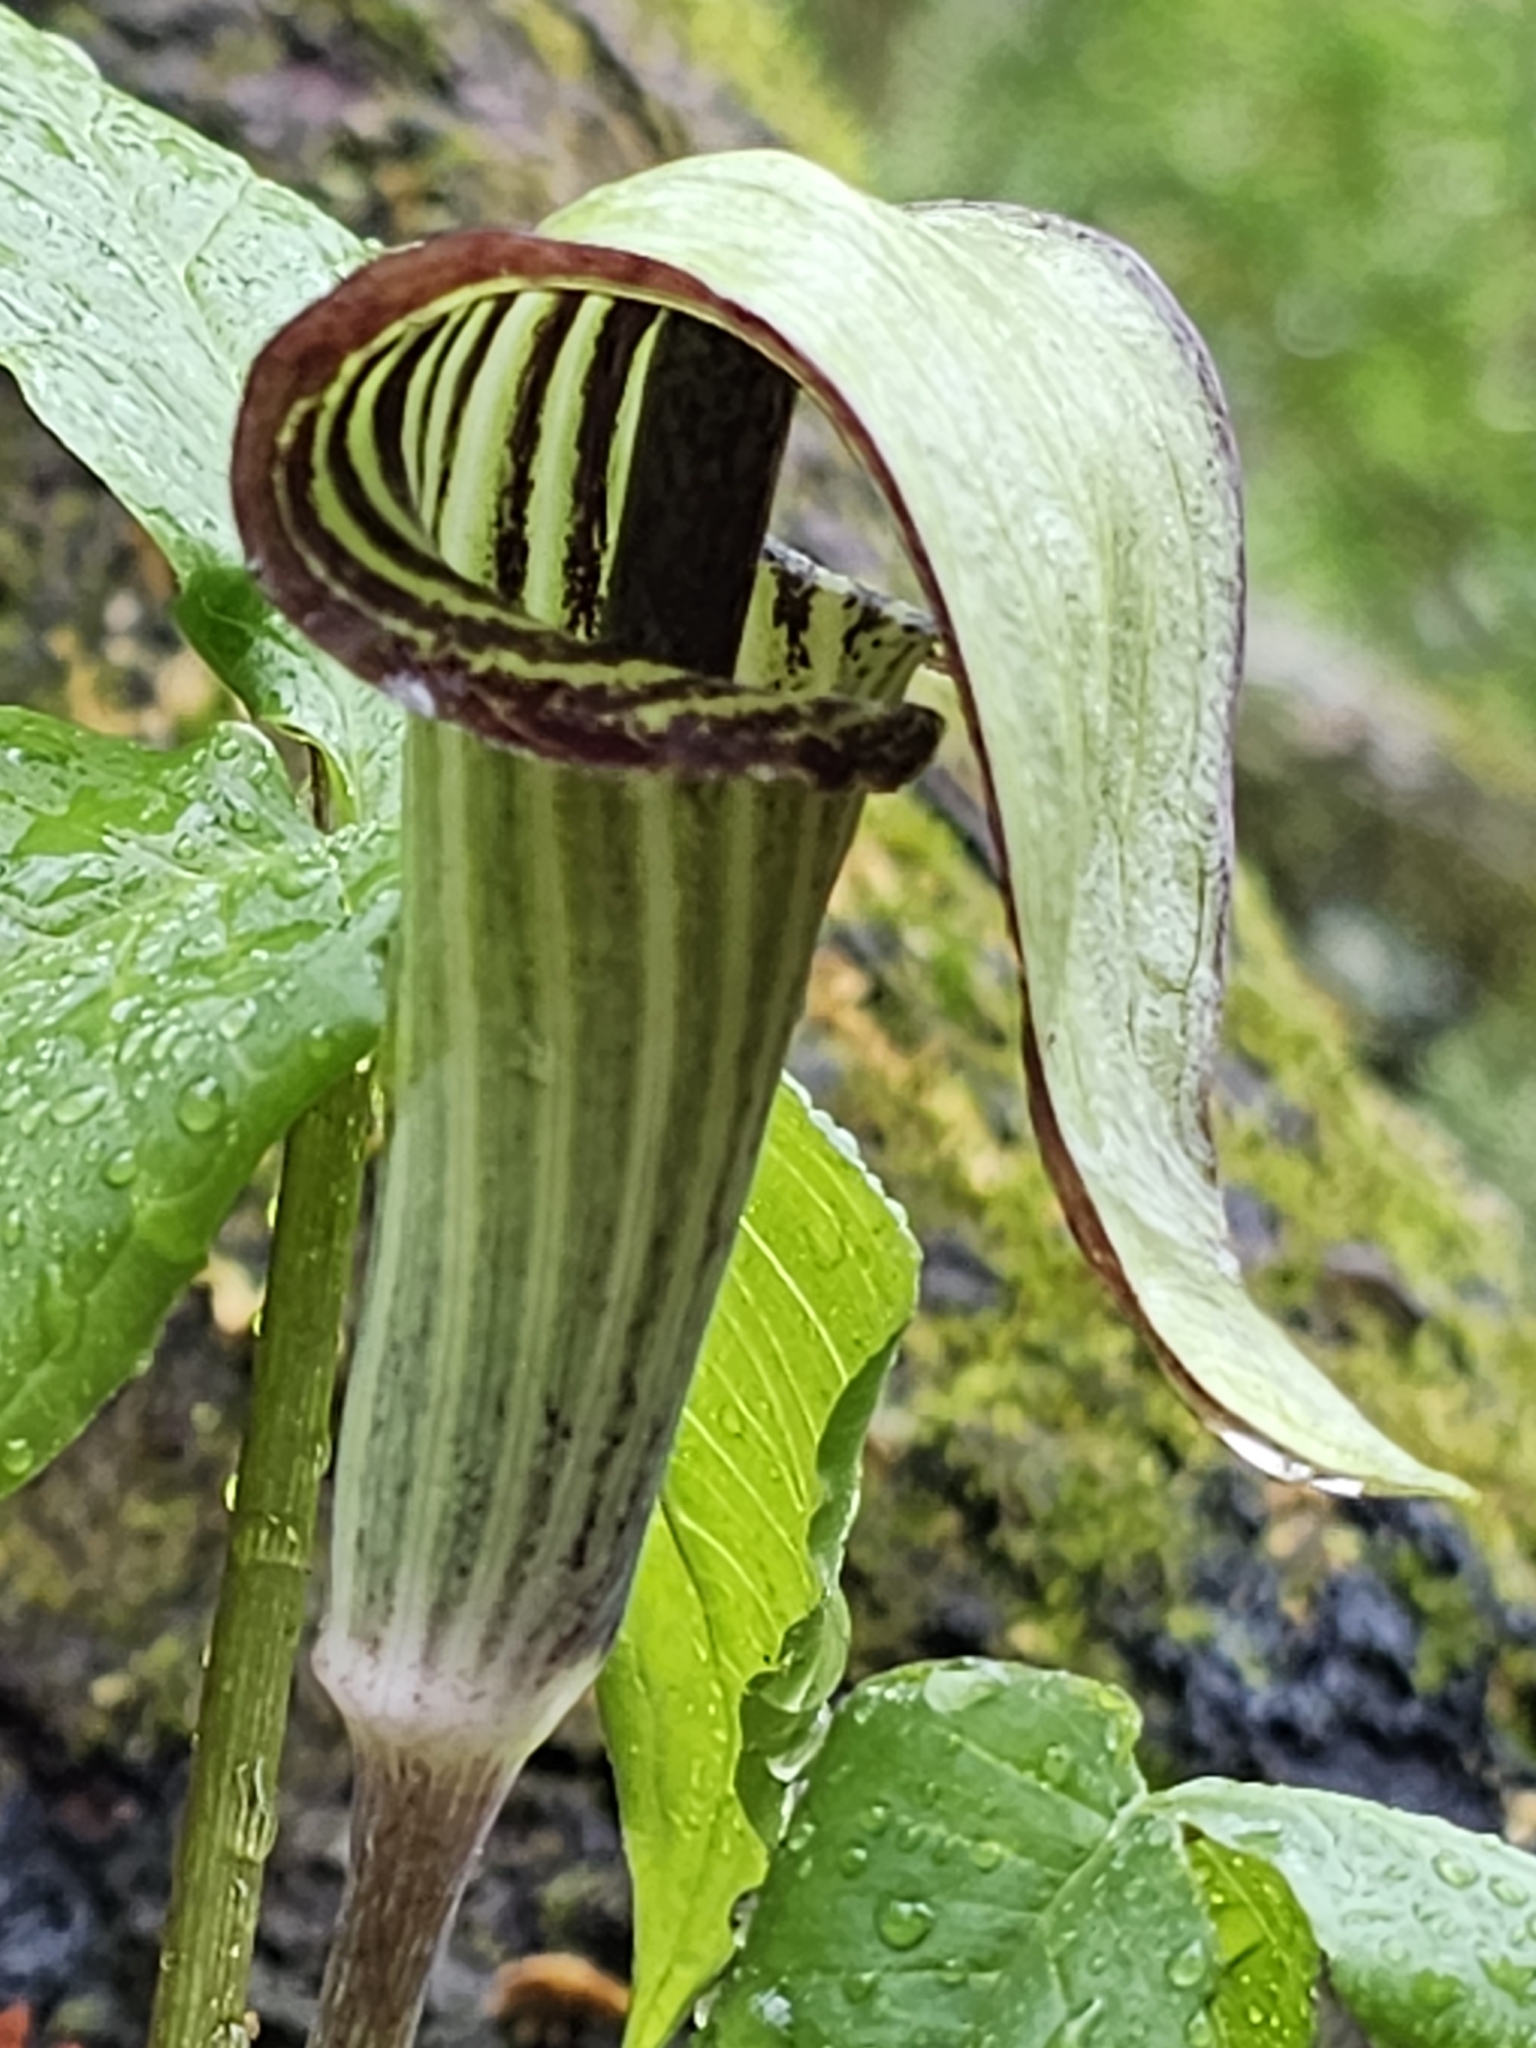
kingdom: Plantae
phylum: Tracheophyta
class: Liliopsida
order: Alismatales
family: Araceae
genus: Arisaema
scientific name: Arisaema triphyllum
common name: Jack-in-the-pulpit
